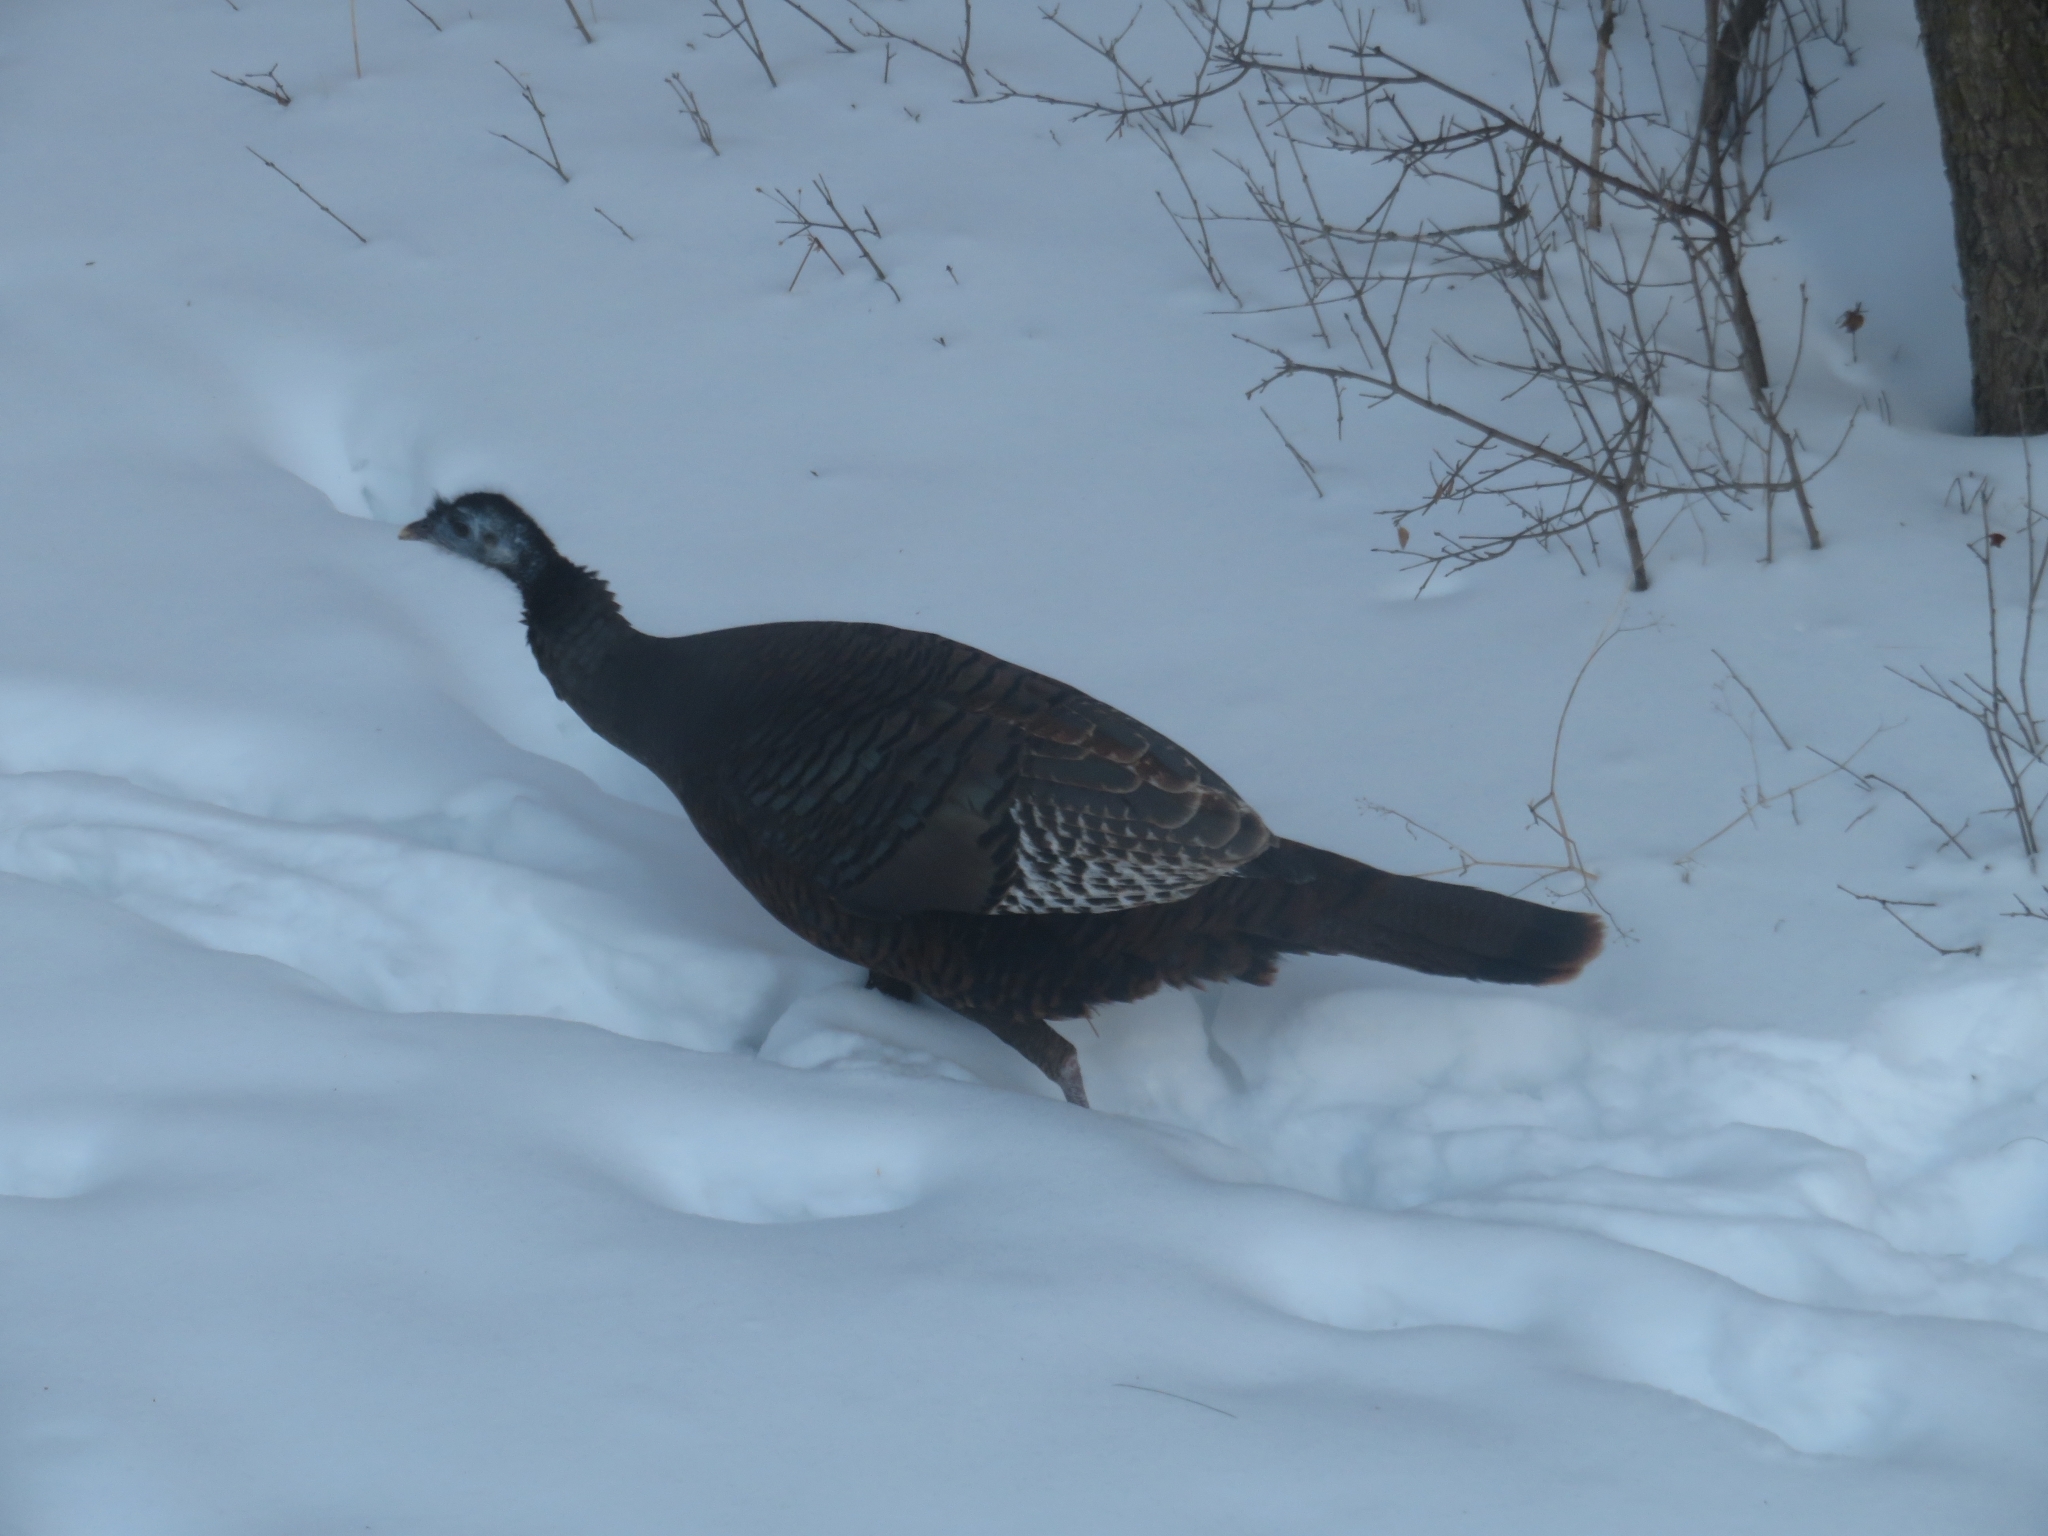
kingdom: Animalia
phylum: Chordata
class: Aves
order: Galliformes
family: Phasianidae
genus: Meleagris
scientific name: Meleagris gallopavo
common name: Wild turkey
